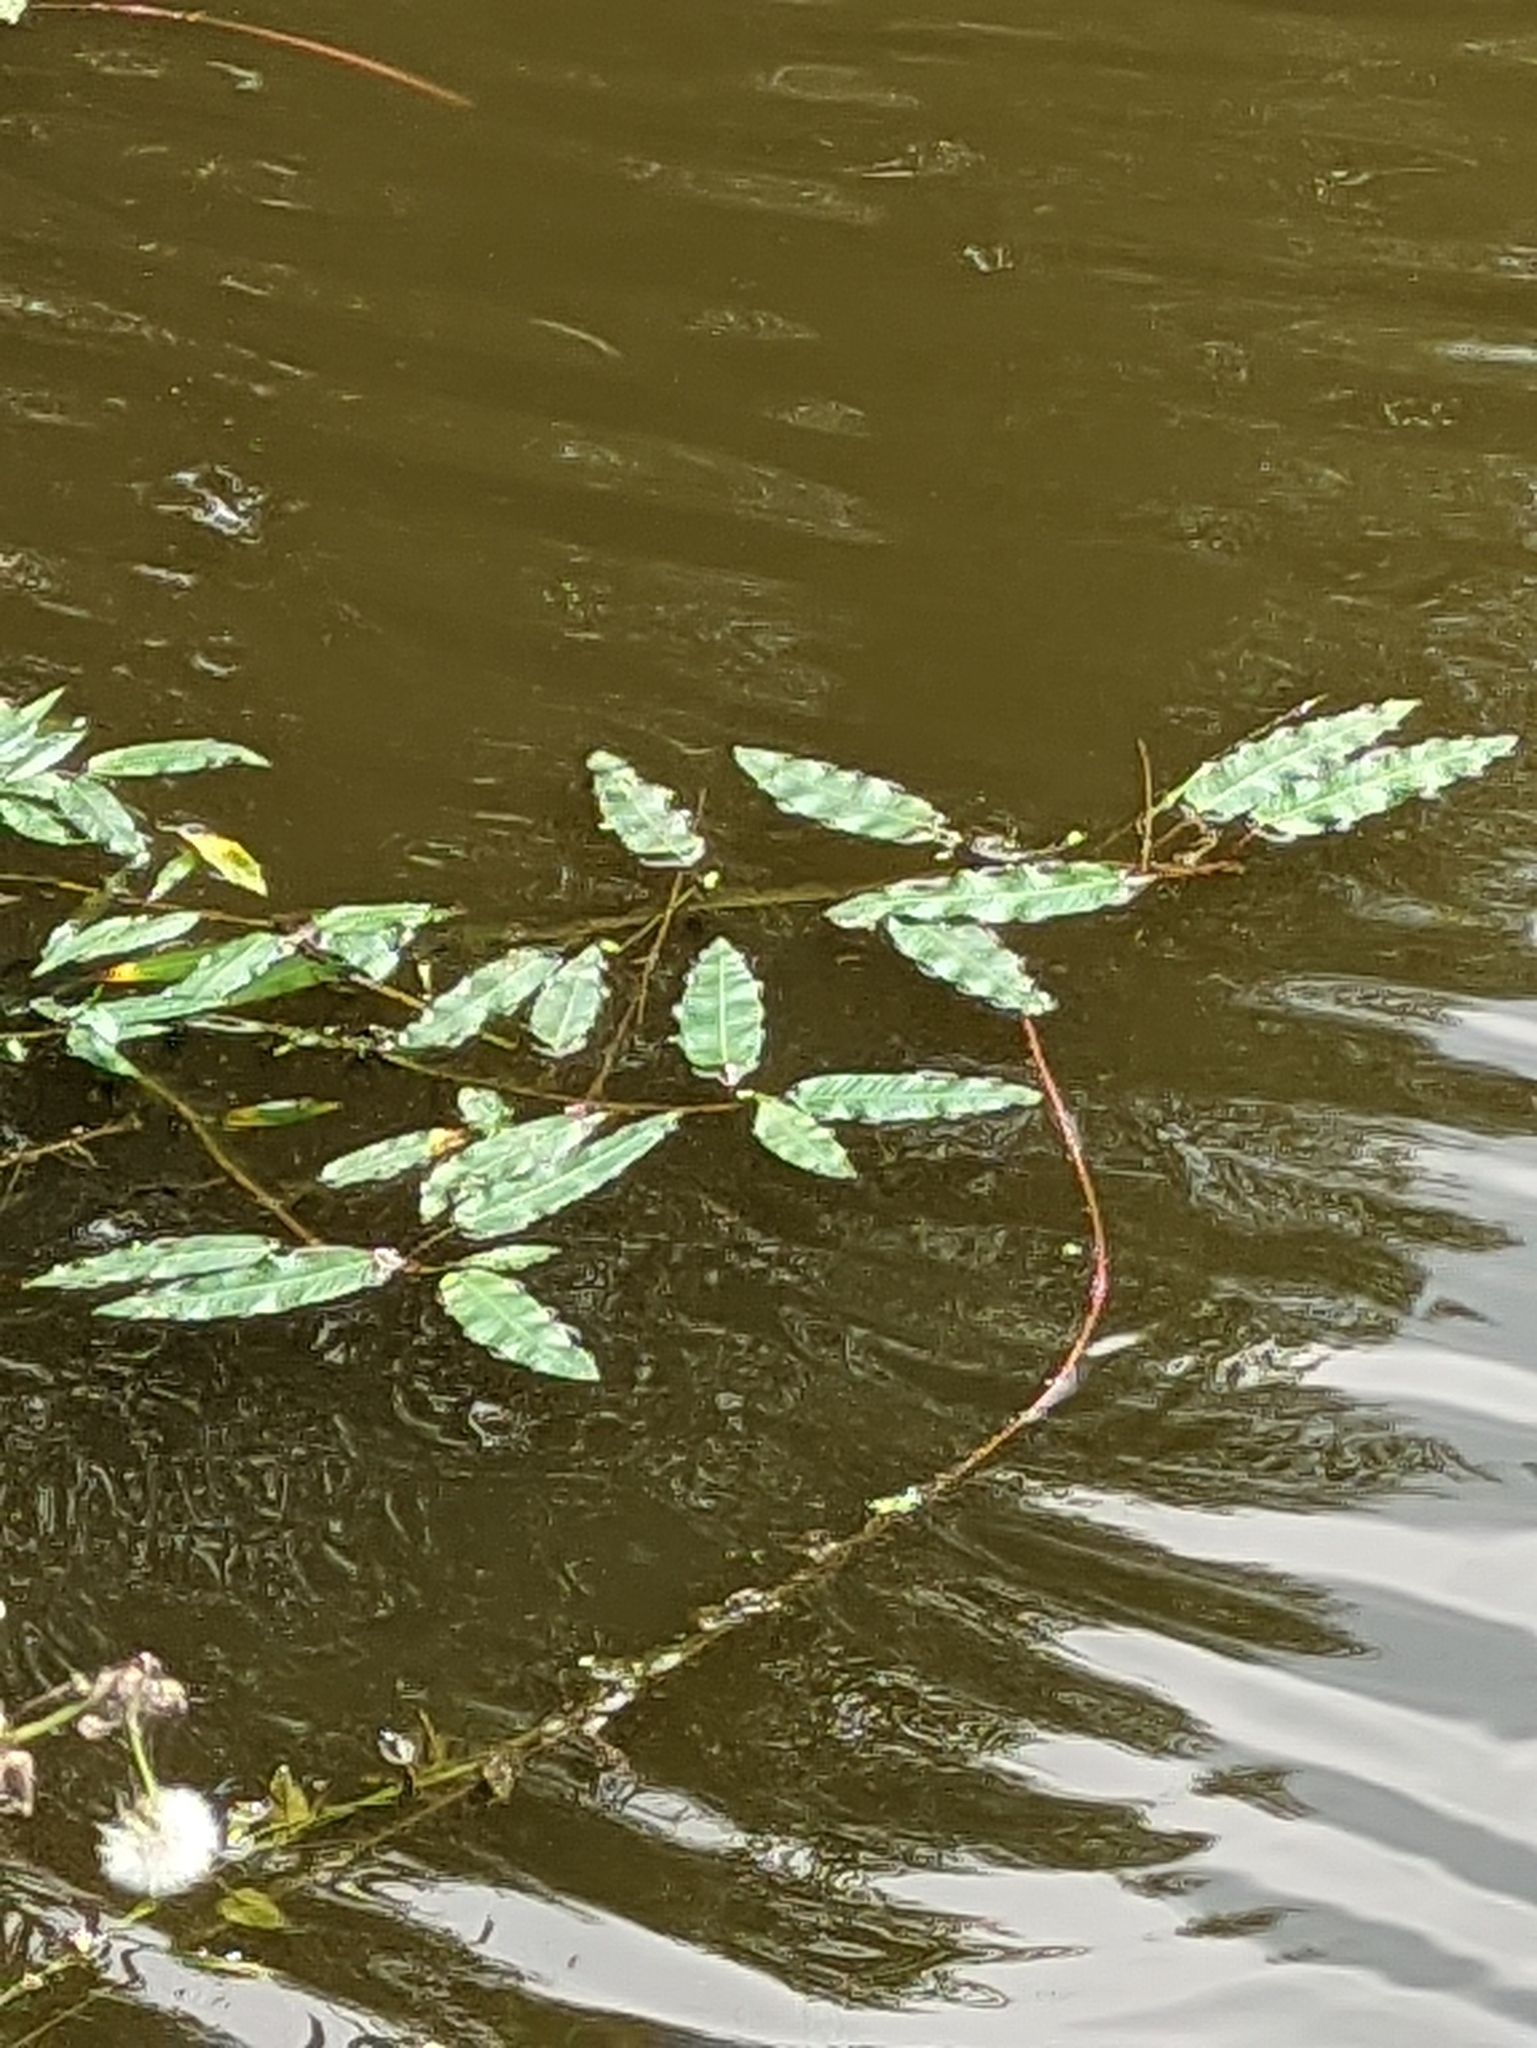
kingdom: Plantae
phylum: Tracheophyta
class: Magnoliopsida
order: Caryophyllales
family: Polygonaceae
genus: Persicaria
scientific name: Persicaria amphibia
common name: Amphibious bistort
